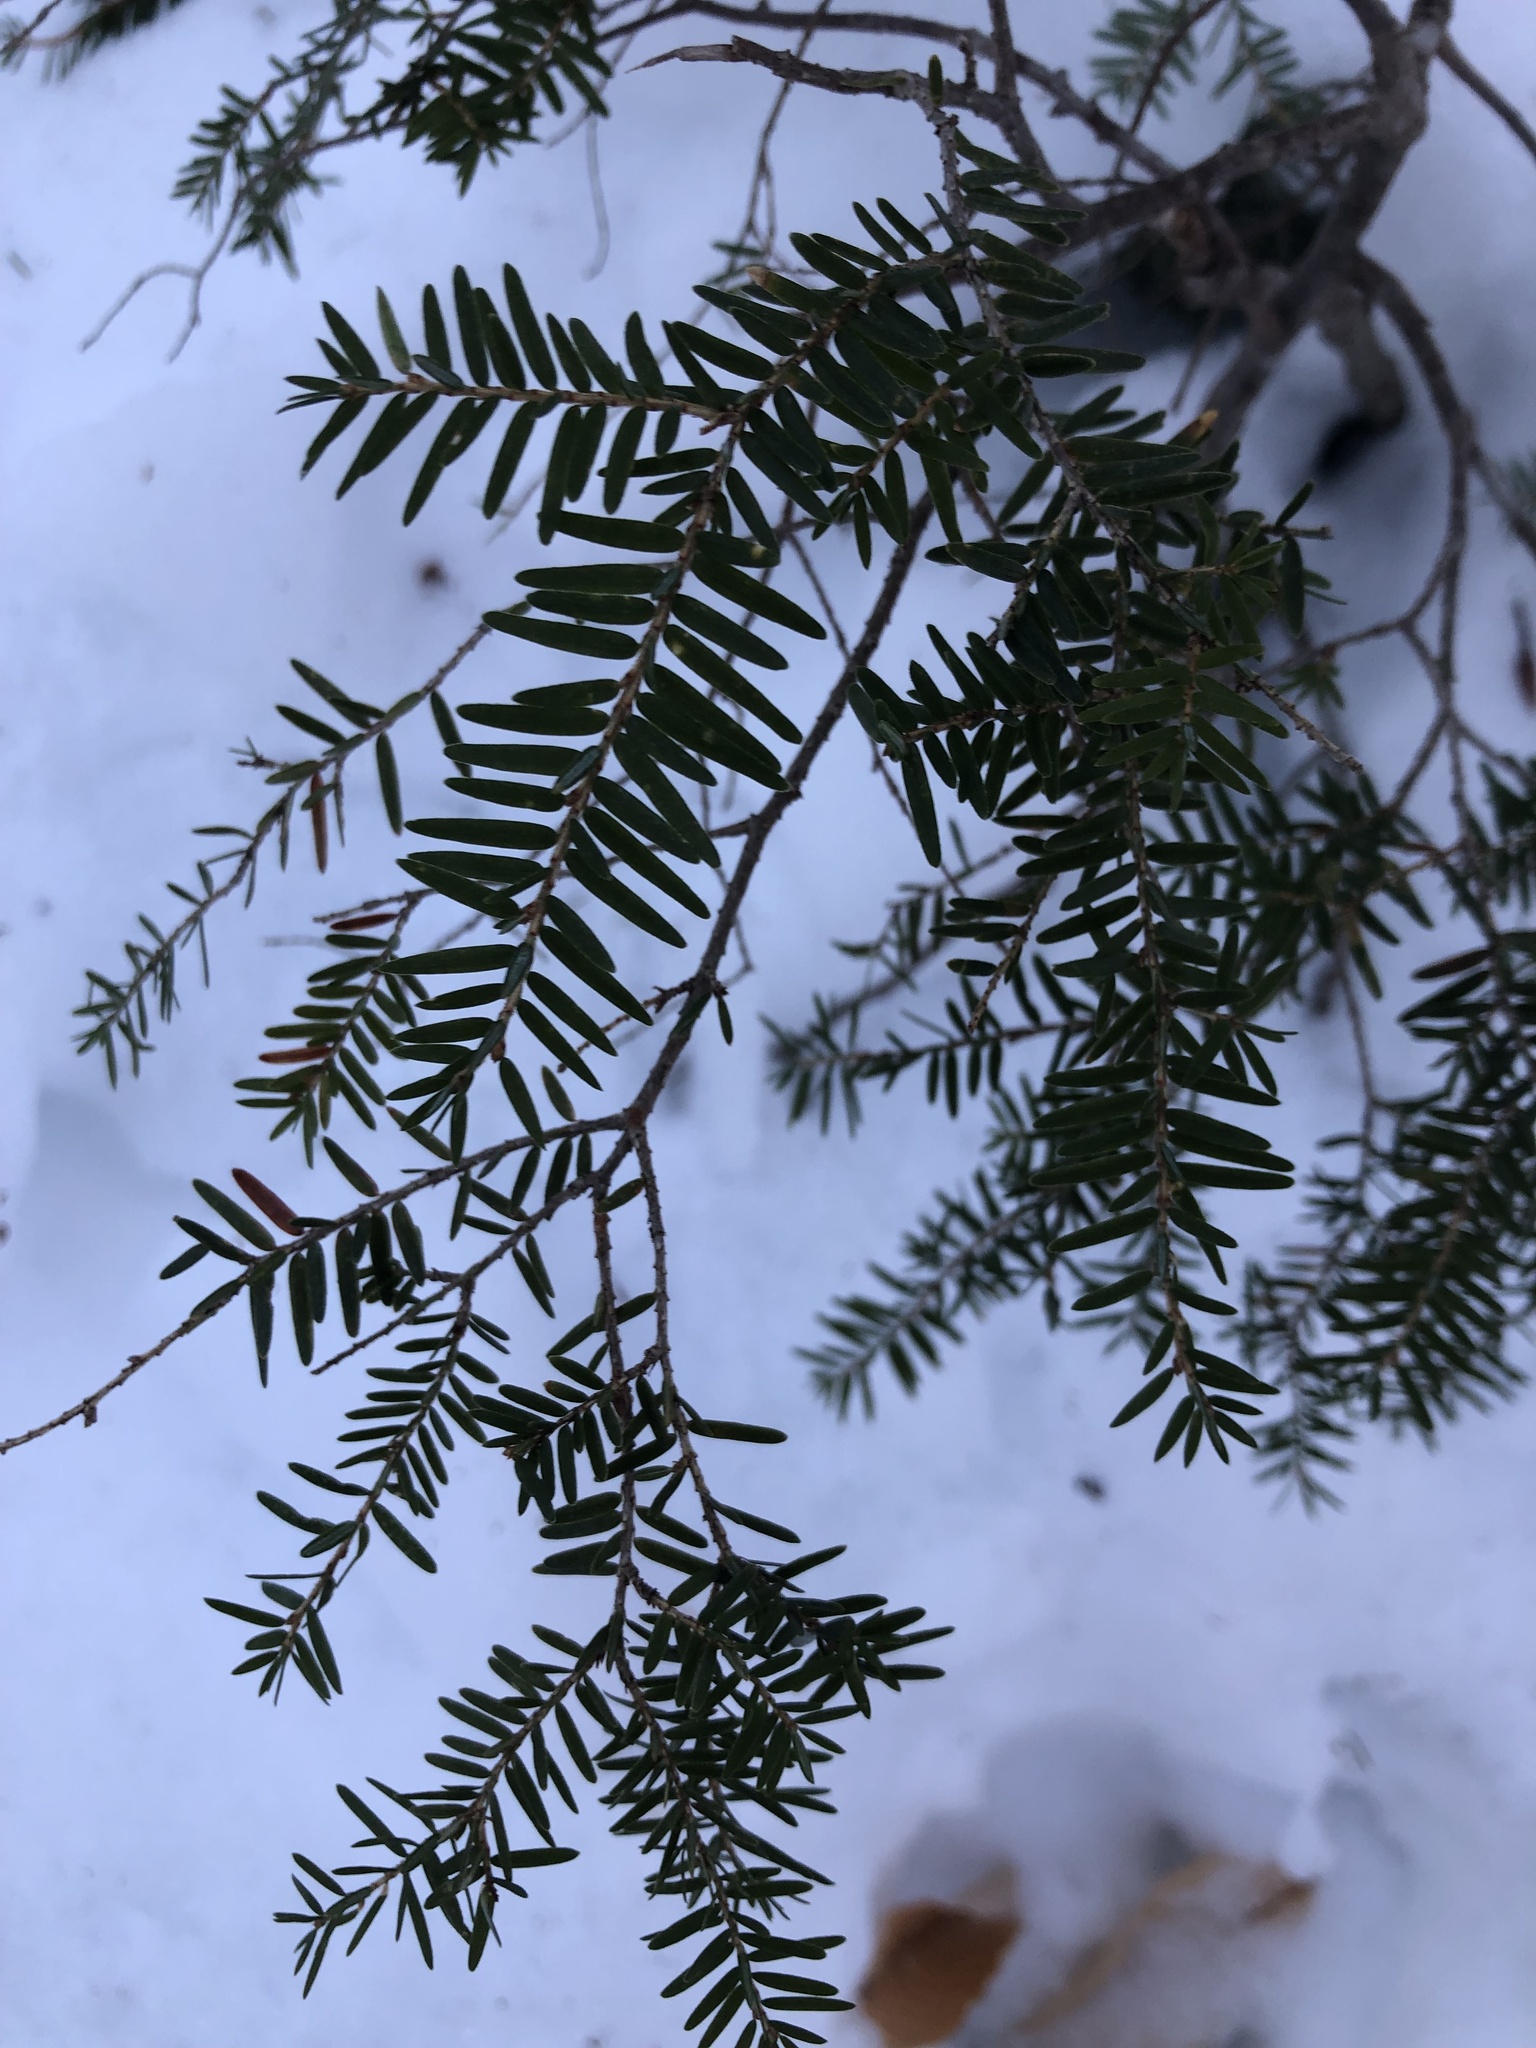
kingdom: Plantae
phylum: Tracheophyta
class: Pinopsida
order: Pinales
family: Pinaceae
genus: Tsuga
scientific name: Tsuga canadensis
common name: Eastern hemlock
